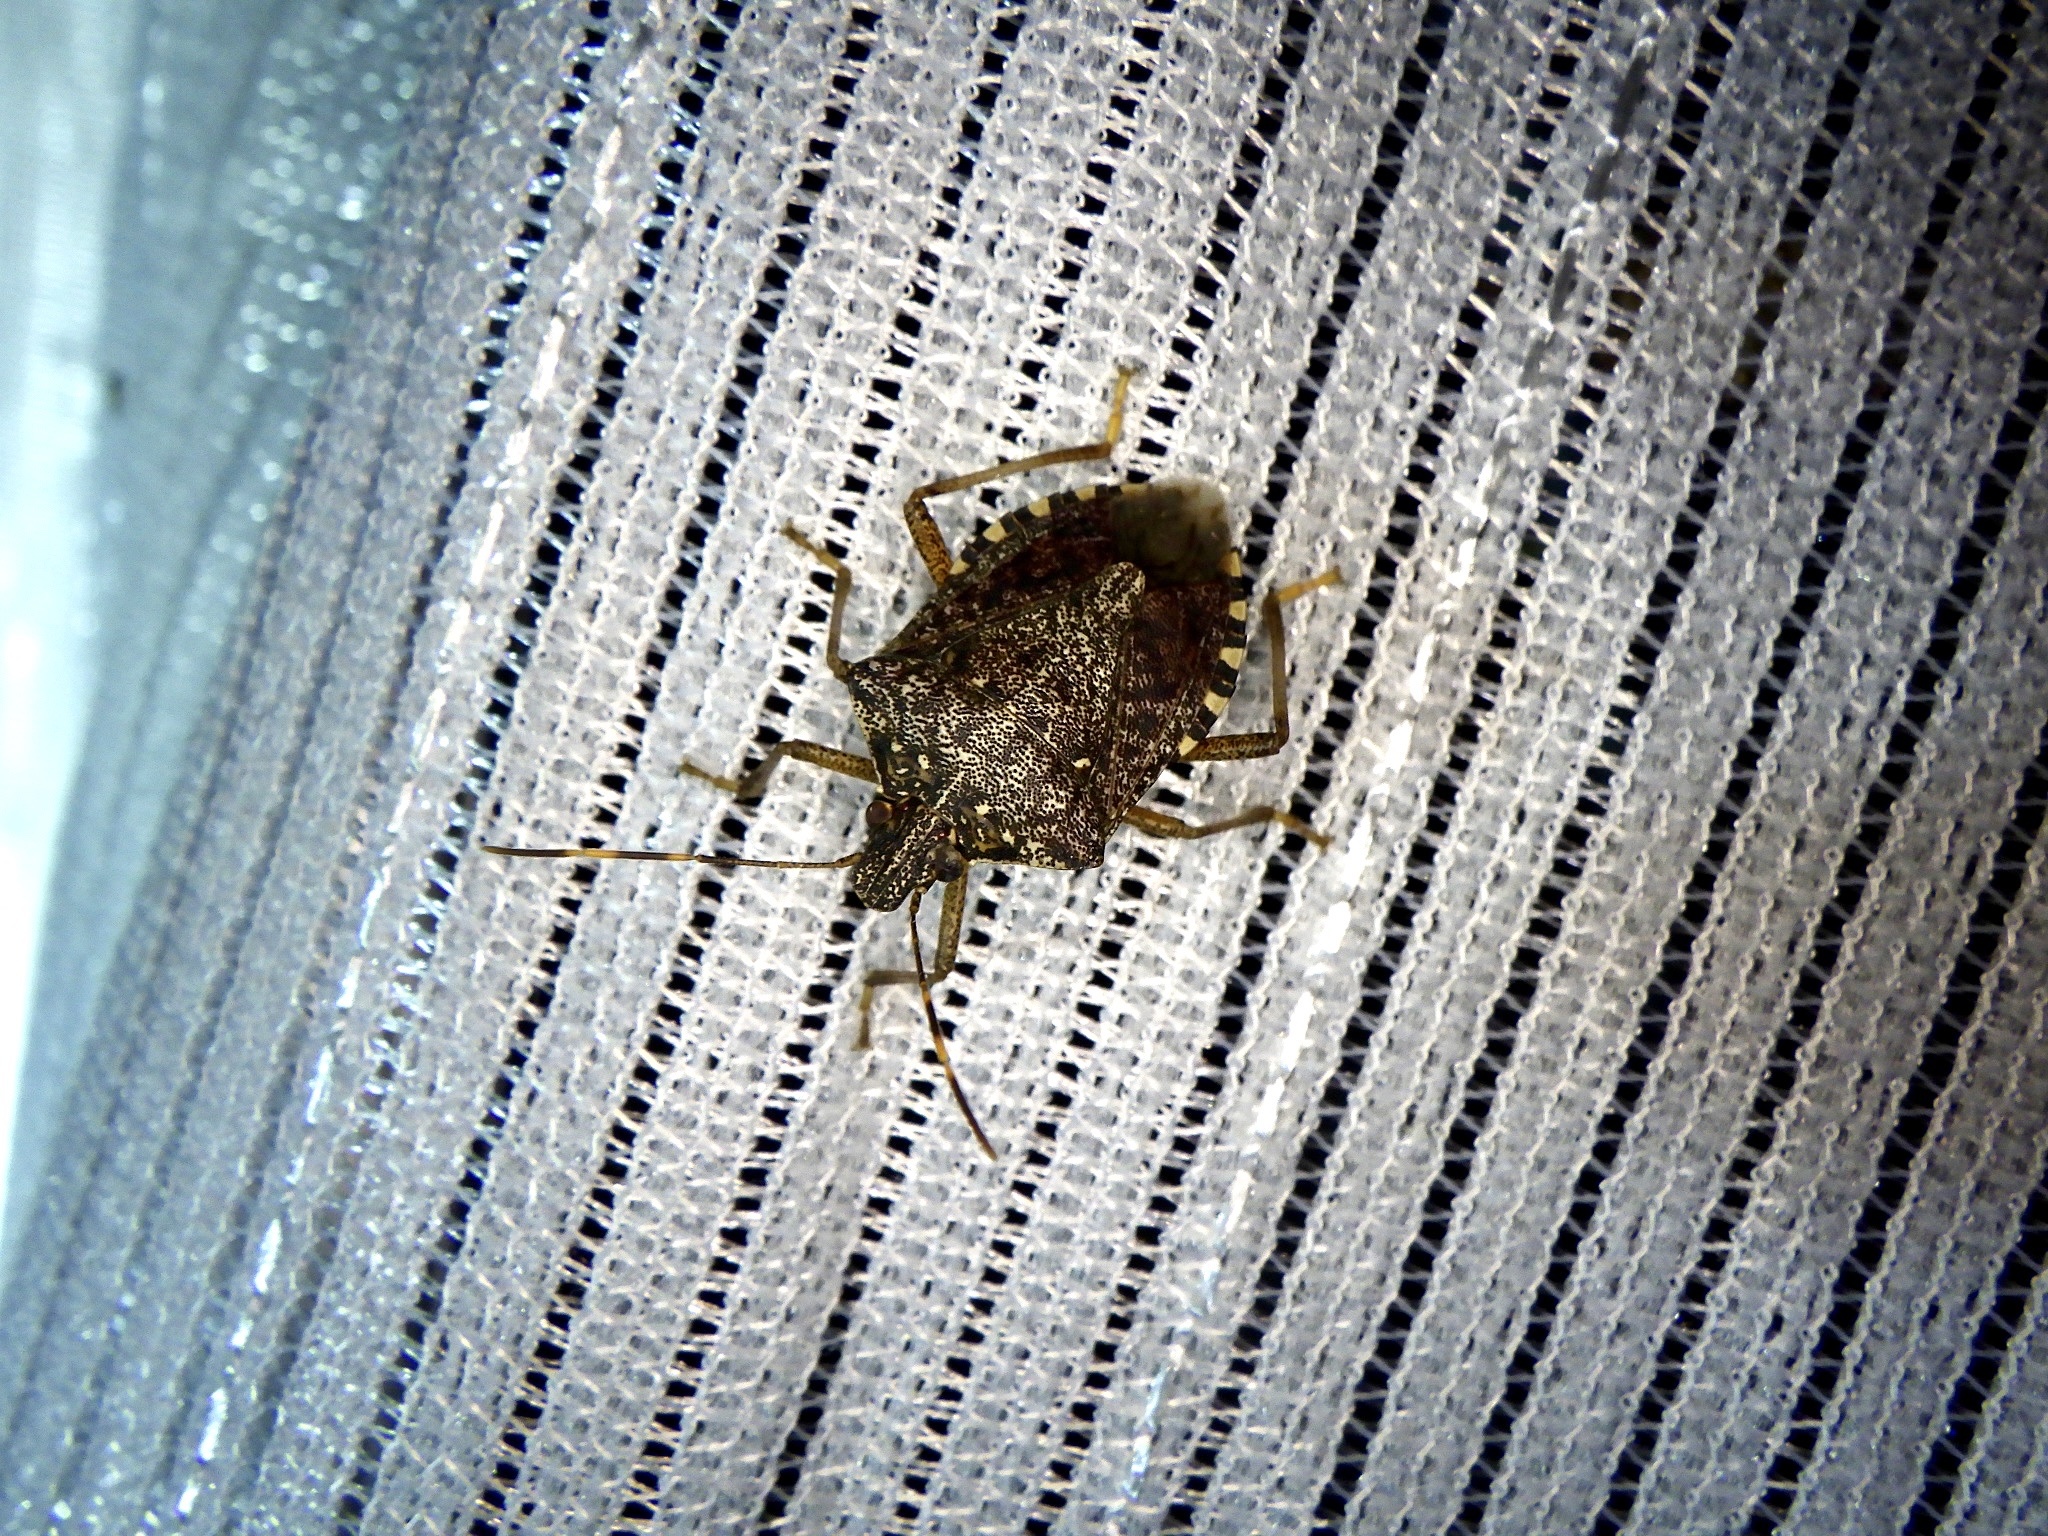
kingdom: Animalia
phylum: Arthropoda
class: Insecta
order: Hemiptera
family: Pentatomidae
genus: Halyomorpha
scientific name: Halyomorpha halys
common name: Brown marmorated stink bug
